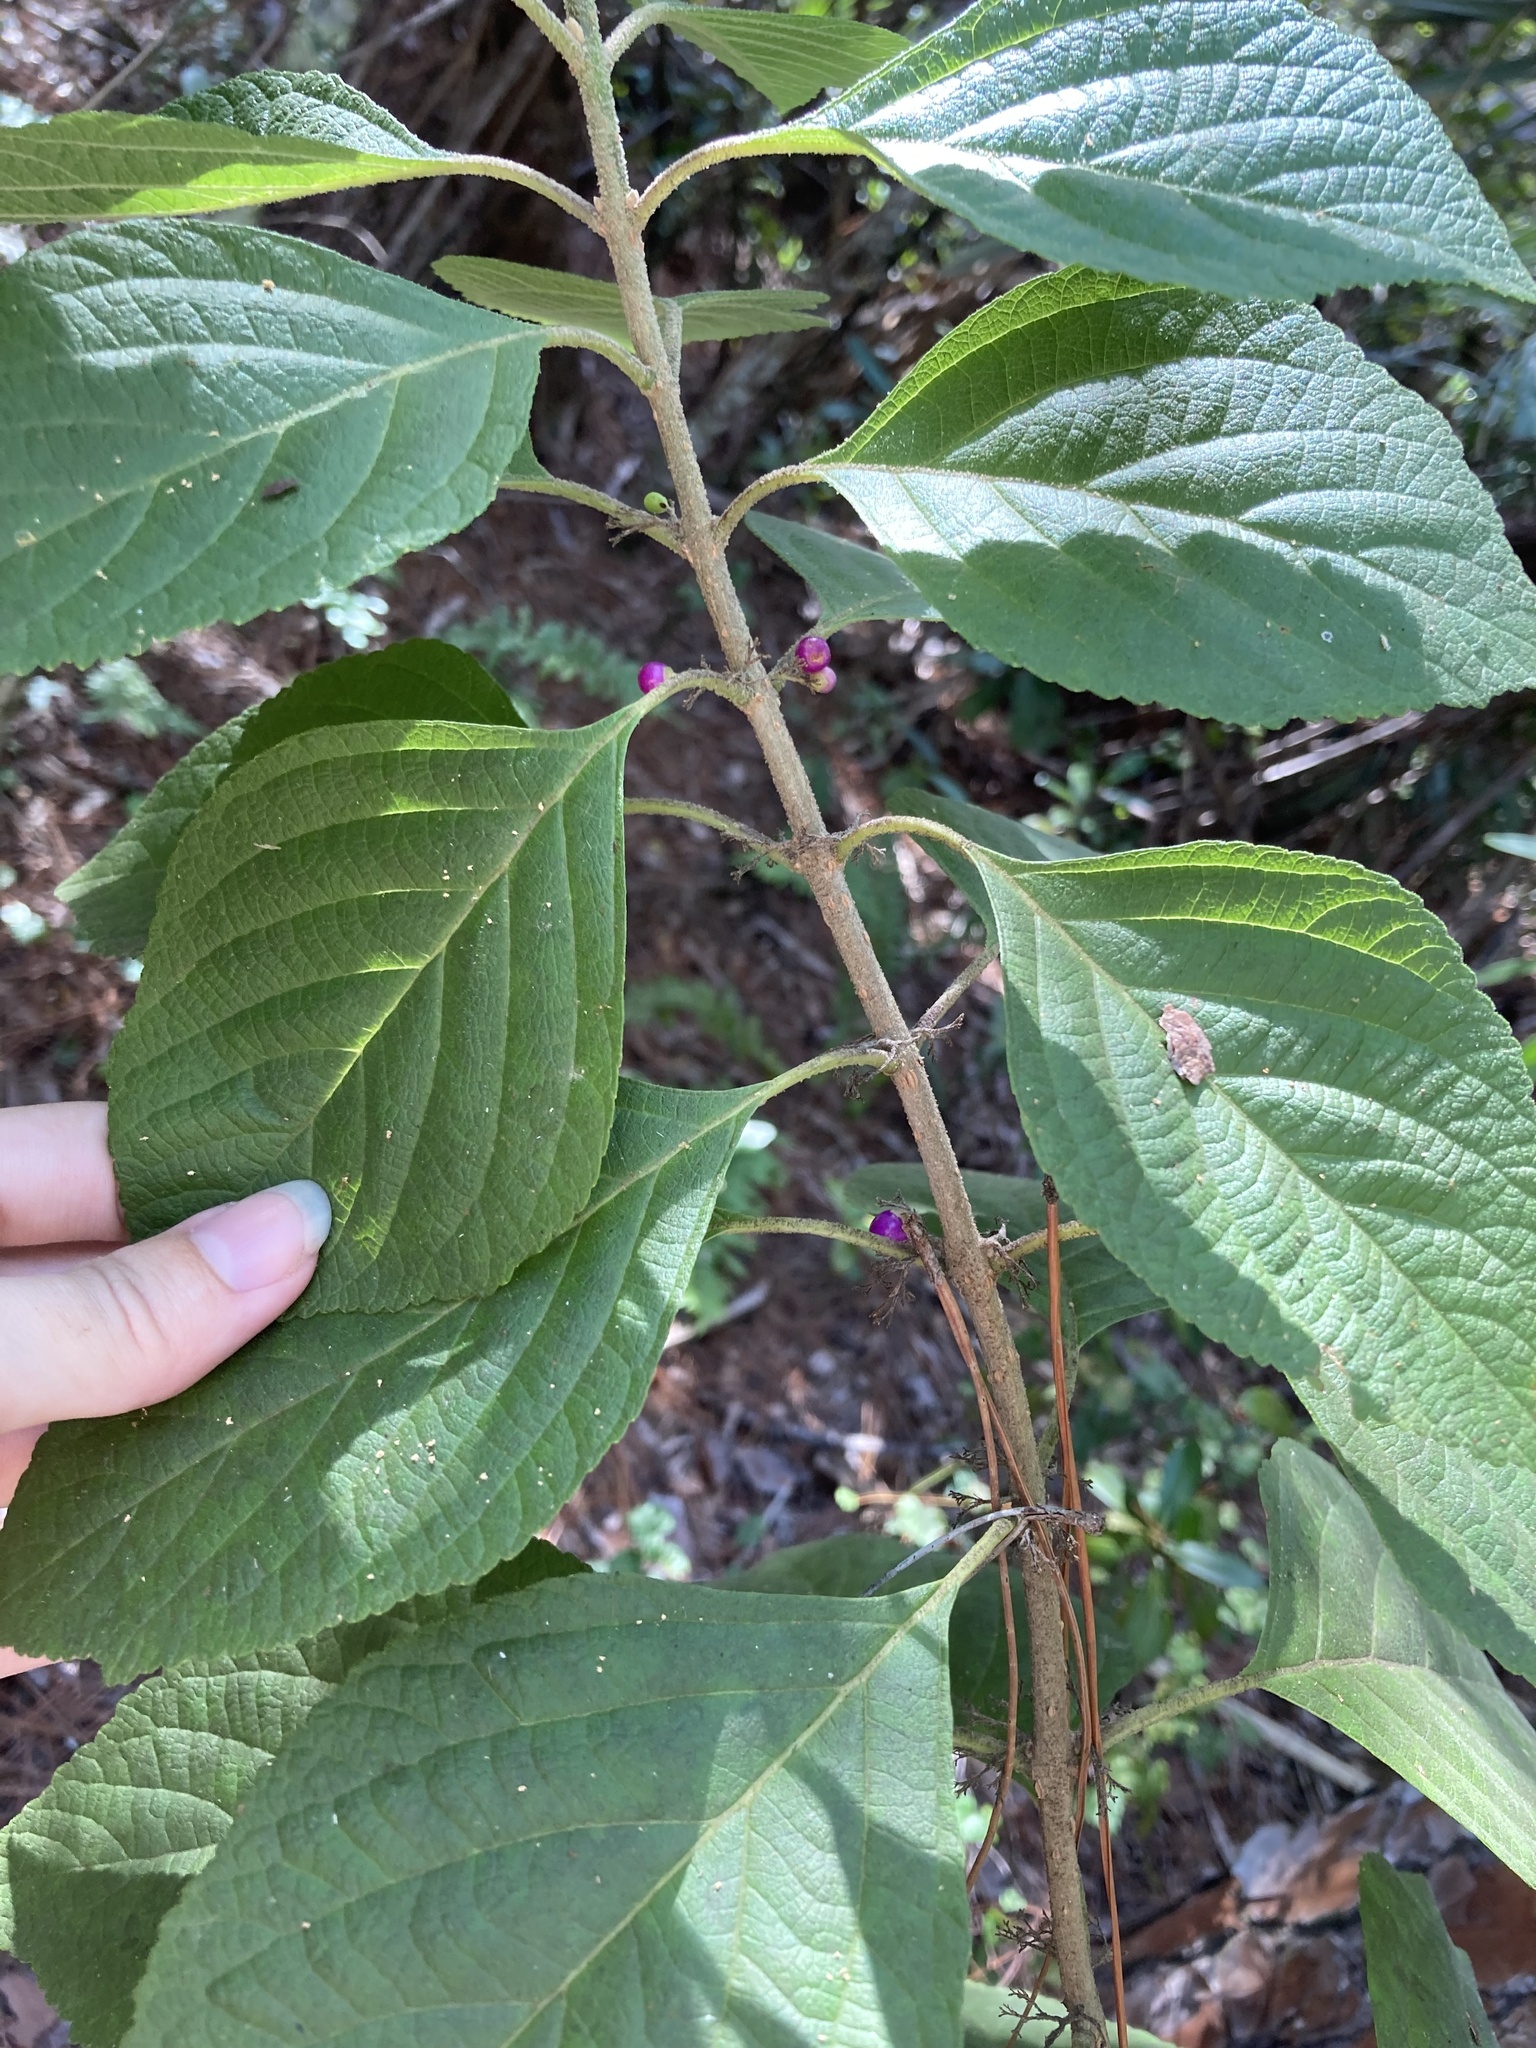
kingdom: Plantae
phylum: Tracheophyta
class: Magnoliopsida
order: Lamiales
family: Lamiaceae
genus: Callicarpa
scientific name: Callicarpa americana
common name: American beautyberry
